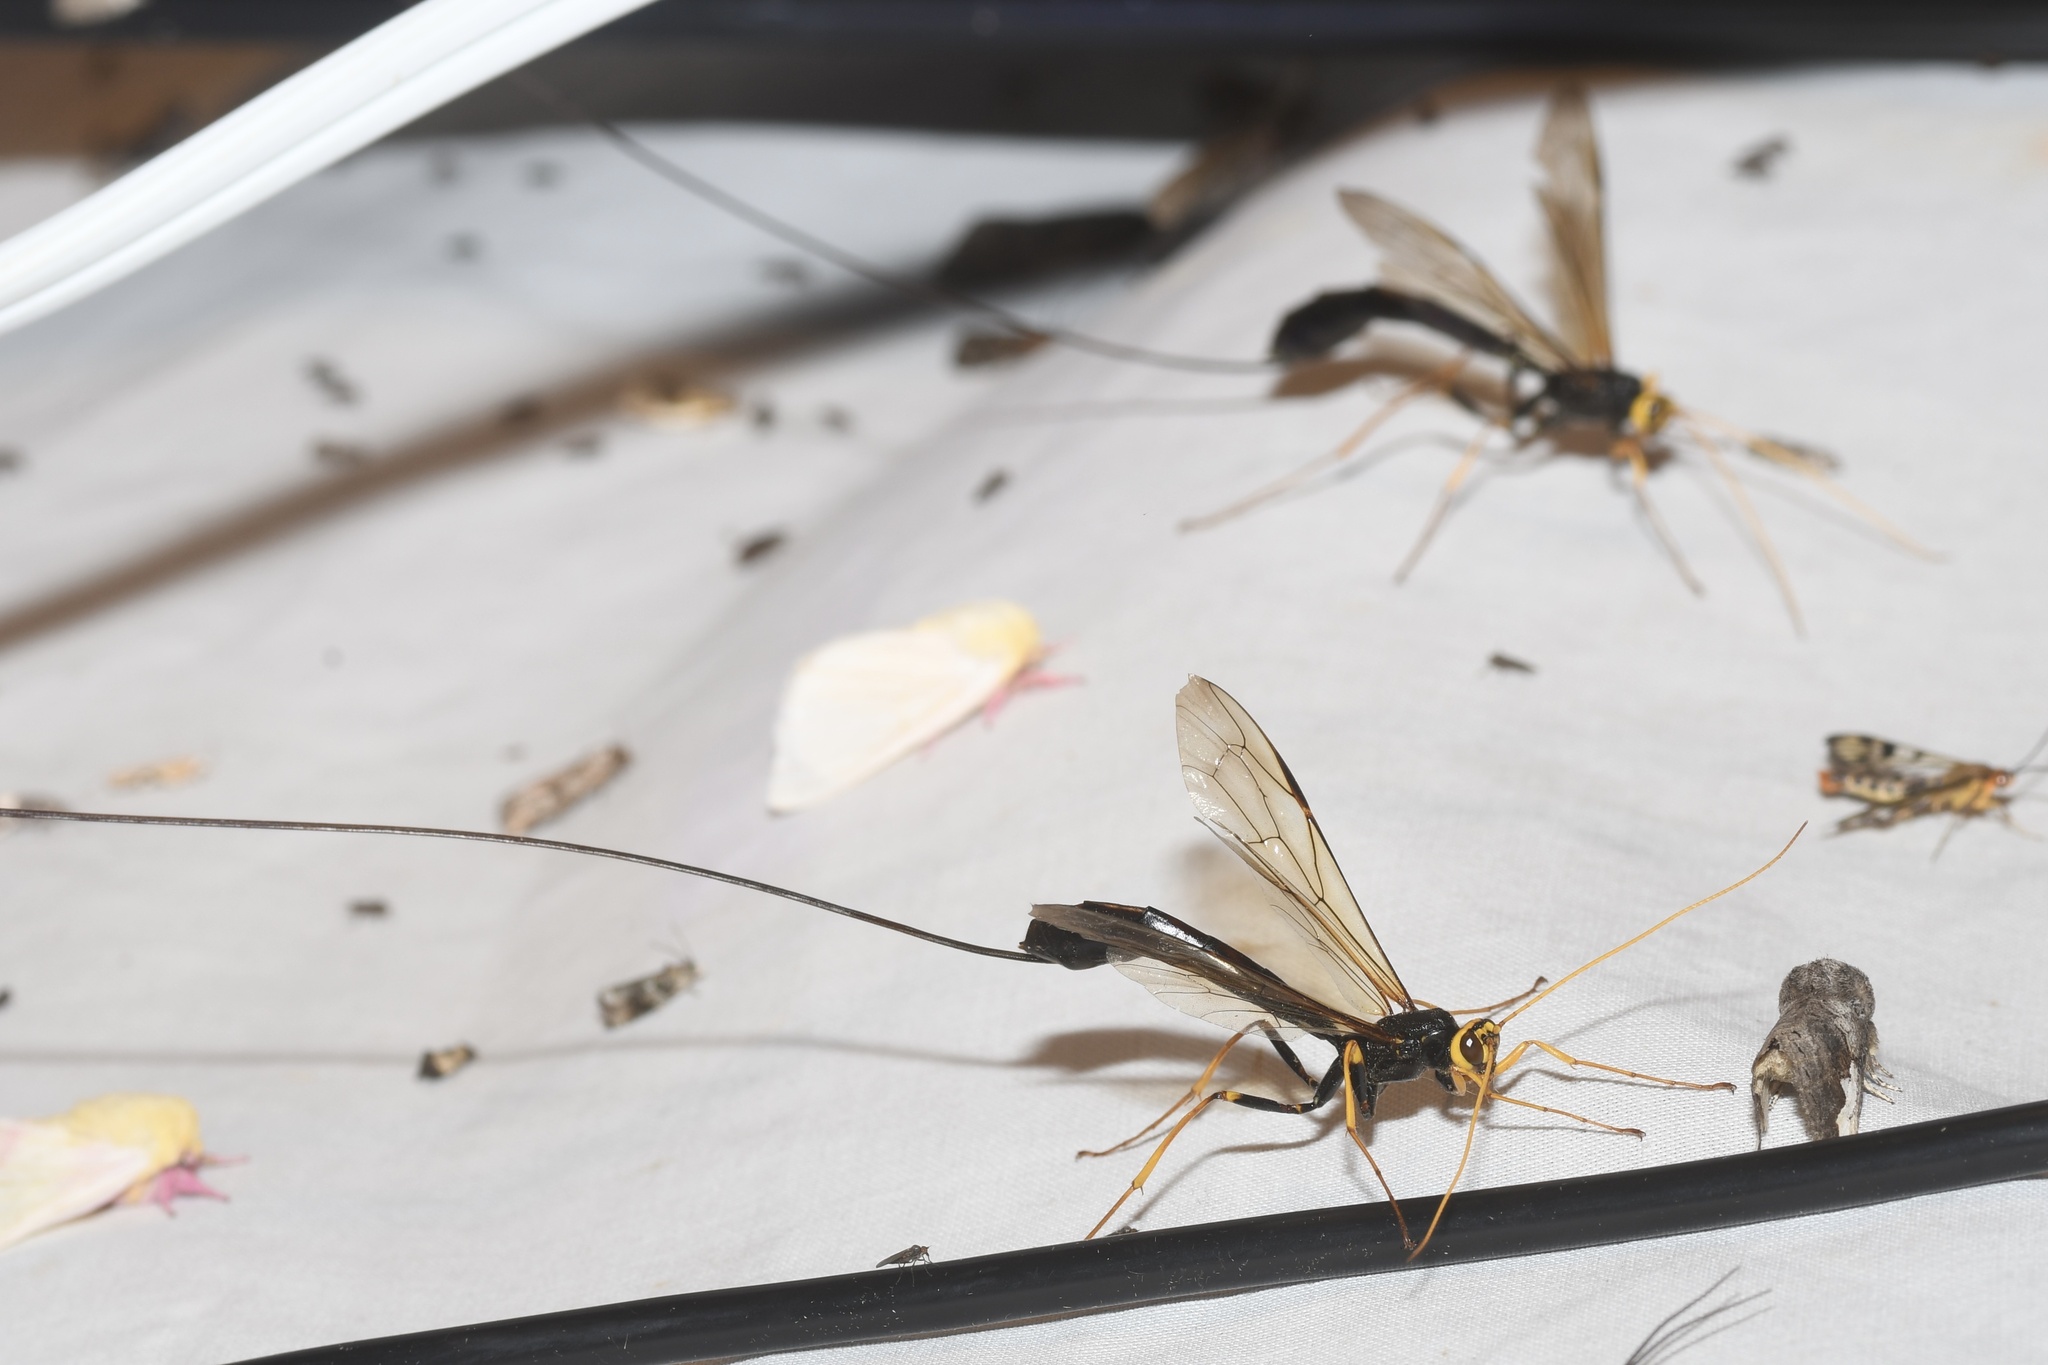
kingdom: Animalia
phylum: Arthropoda
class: Insecta
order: Hymenoptera
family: Ichneumonidae
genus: Megarhyssa
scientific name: Megarhyssa atrata
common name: Black giant ichneumonid wasp
